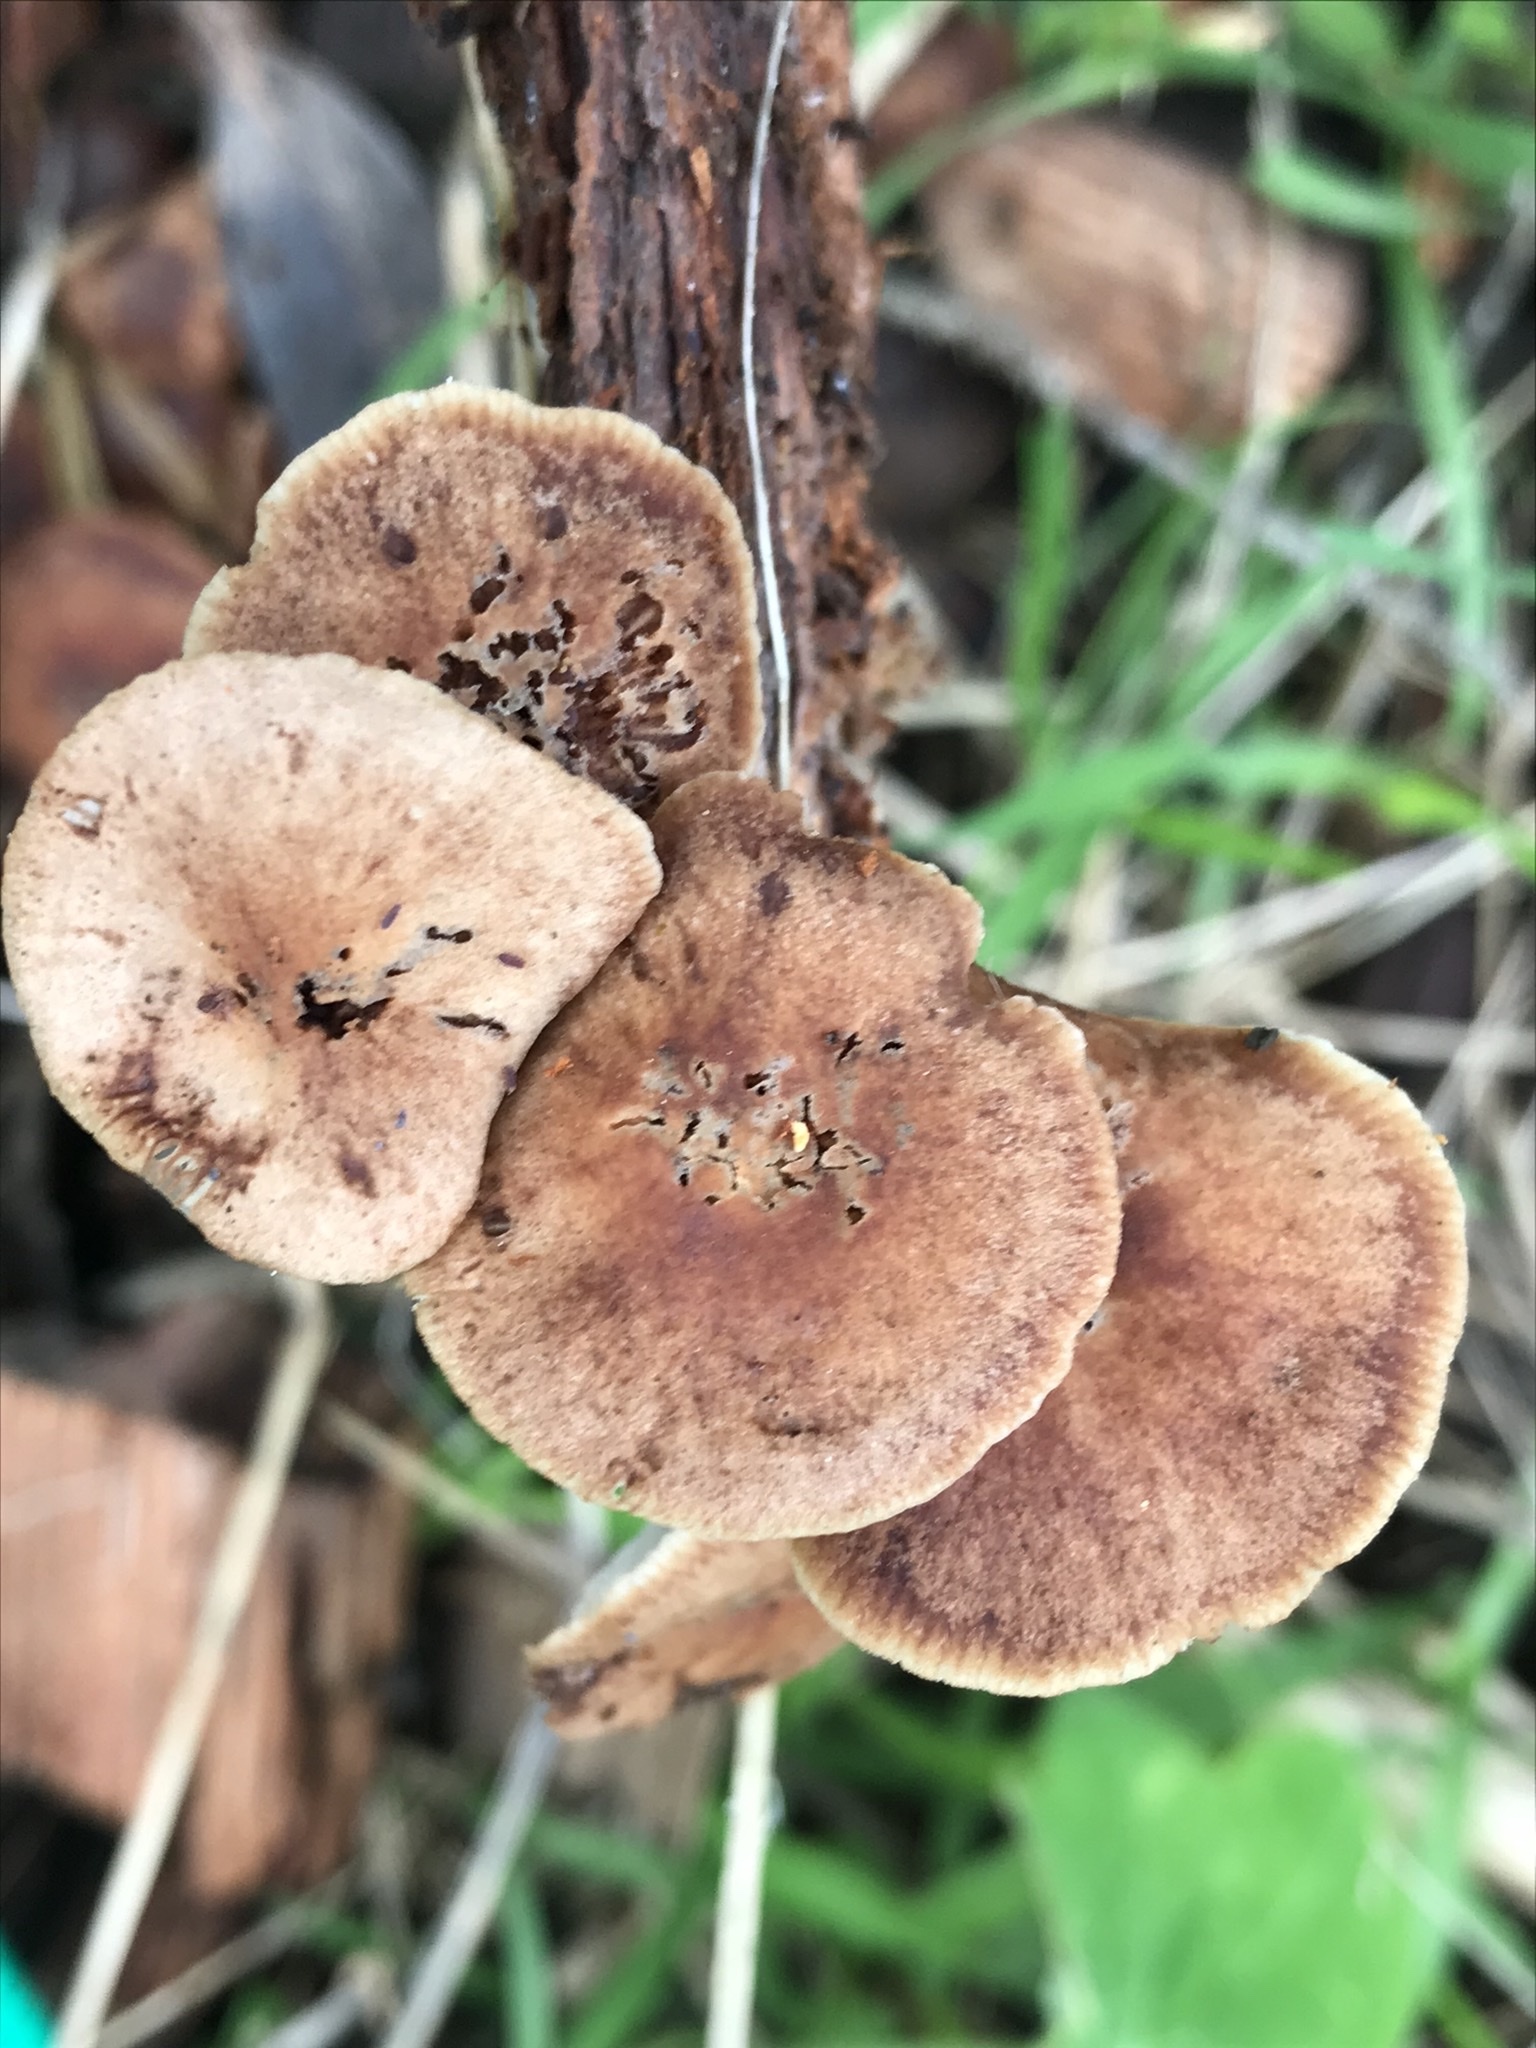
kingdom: Fungi
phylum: Basidiomycota
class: Agaricomycetes
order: Agaricales
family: Omphalotaceae
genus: Gymnopus
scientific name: Gymnopus brassicolens
